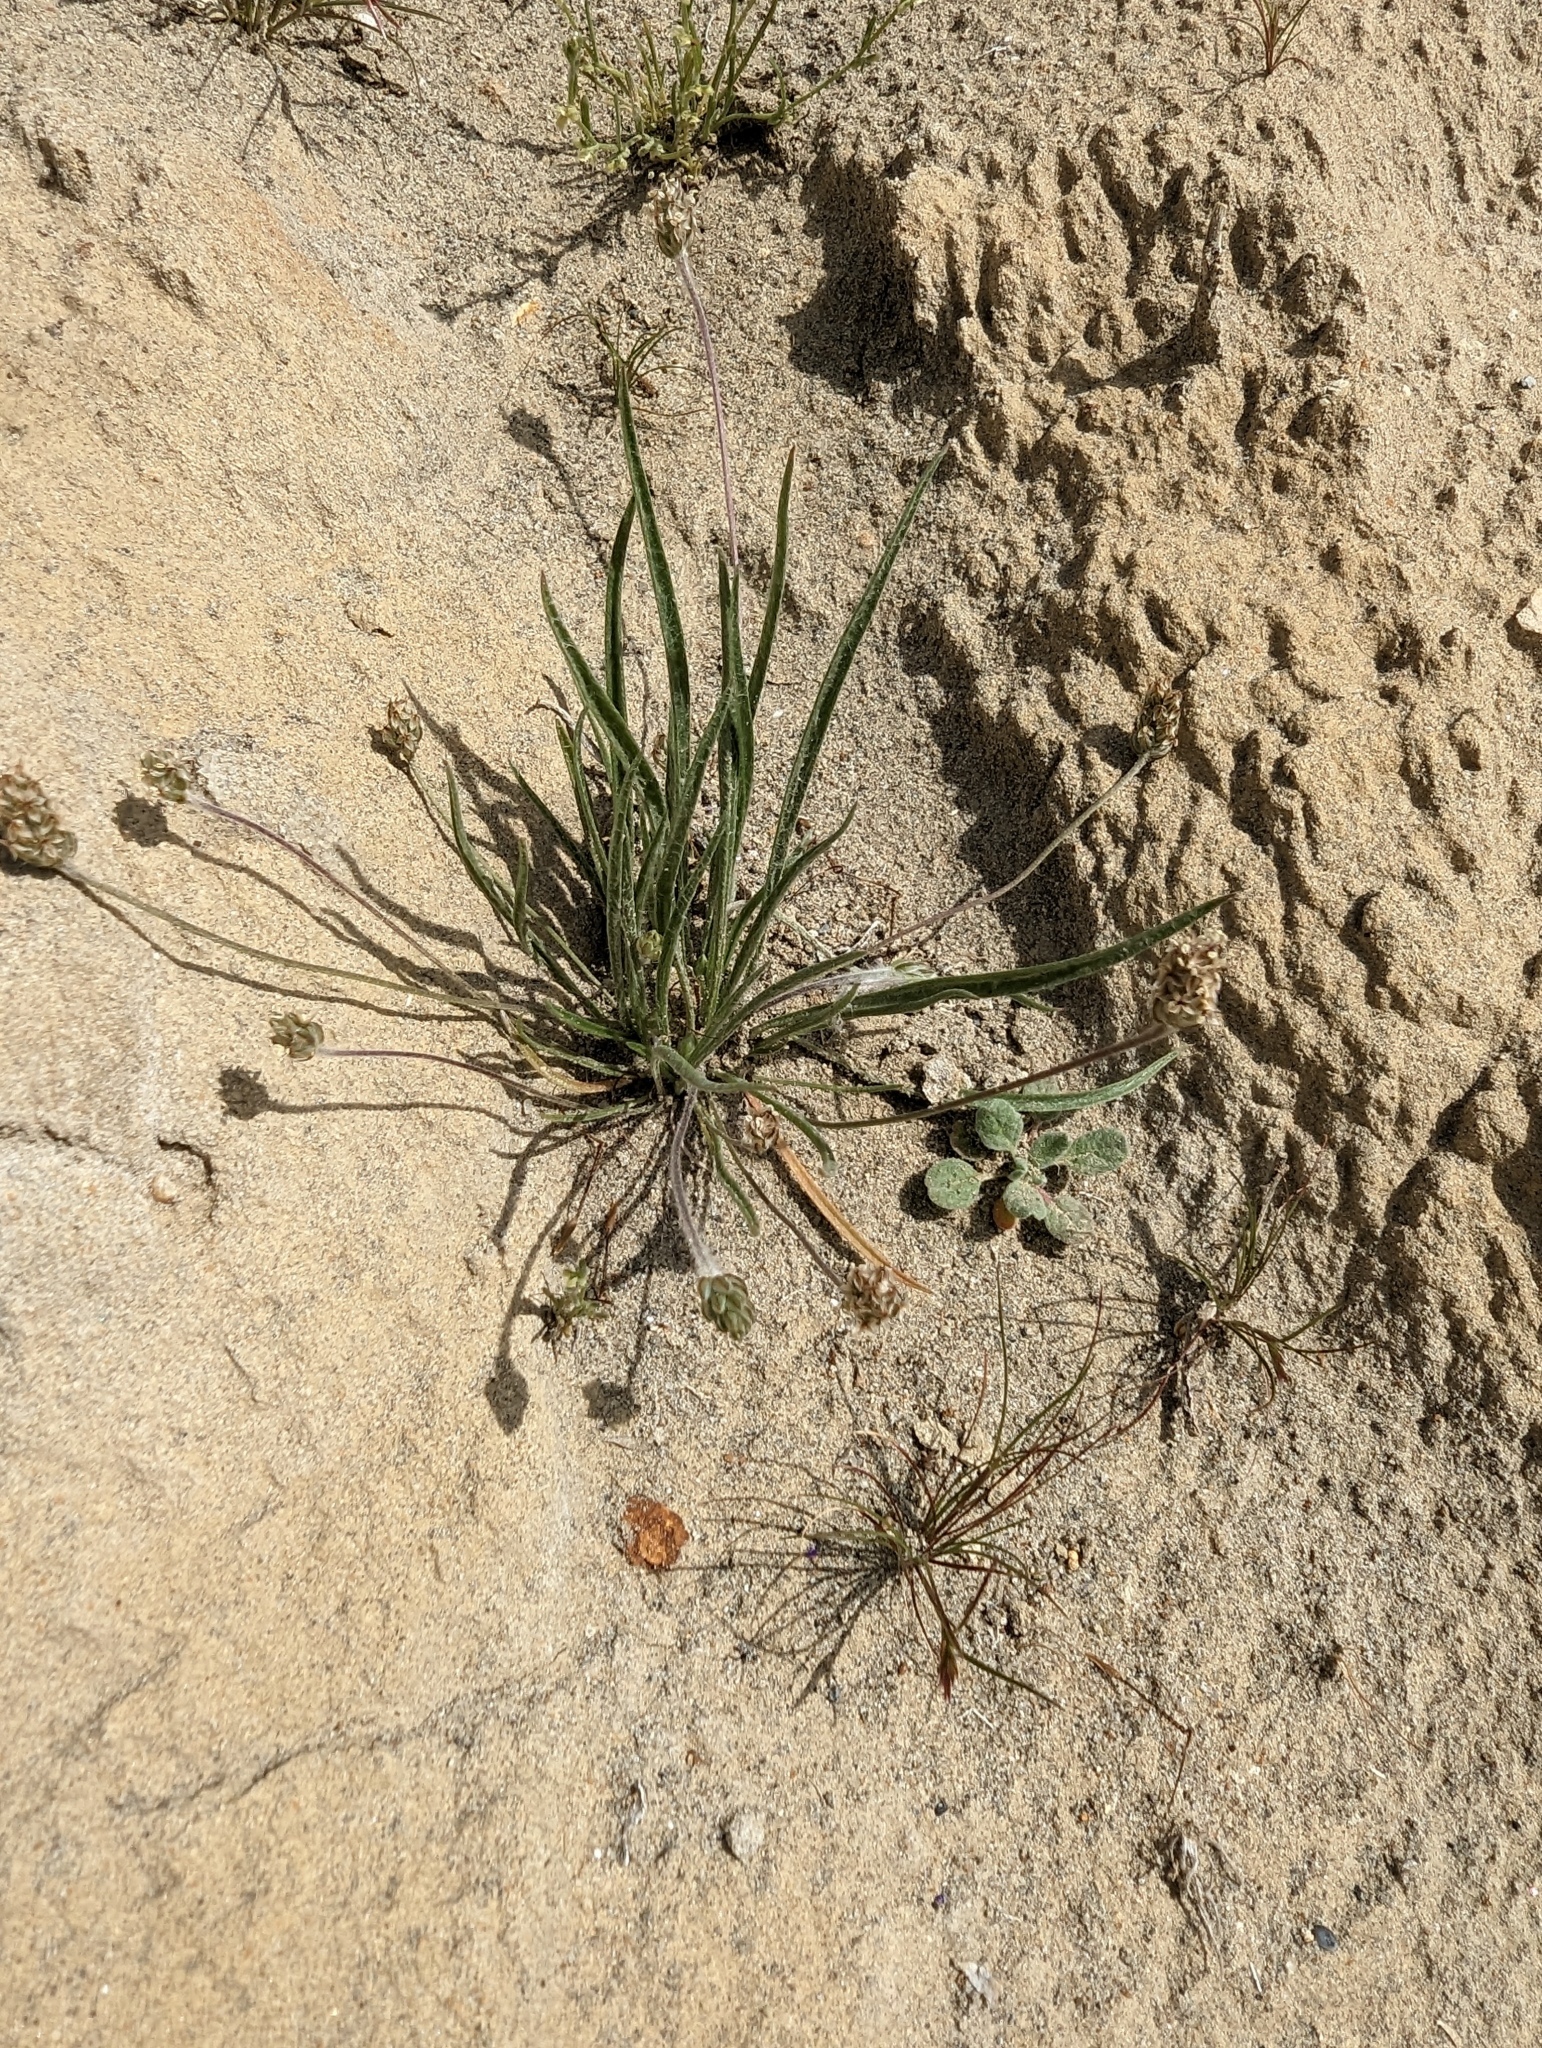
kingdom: Plantae
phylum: Tracheophyta
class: Magnoliopsida
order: Lamiales
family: Plantaginaceae
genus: Plantago
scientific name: Plantago ovata
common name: Blond plantain
